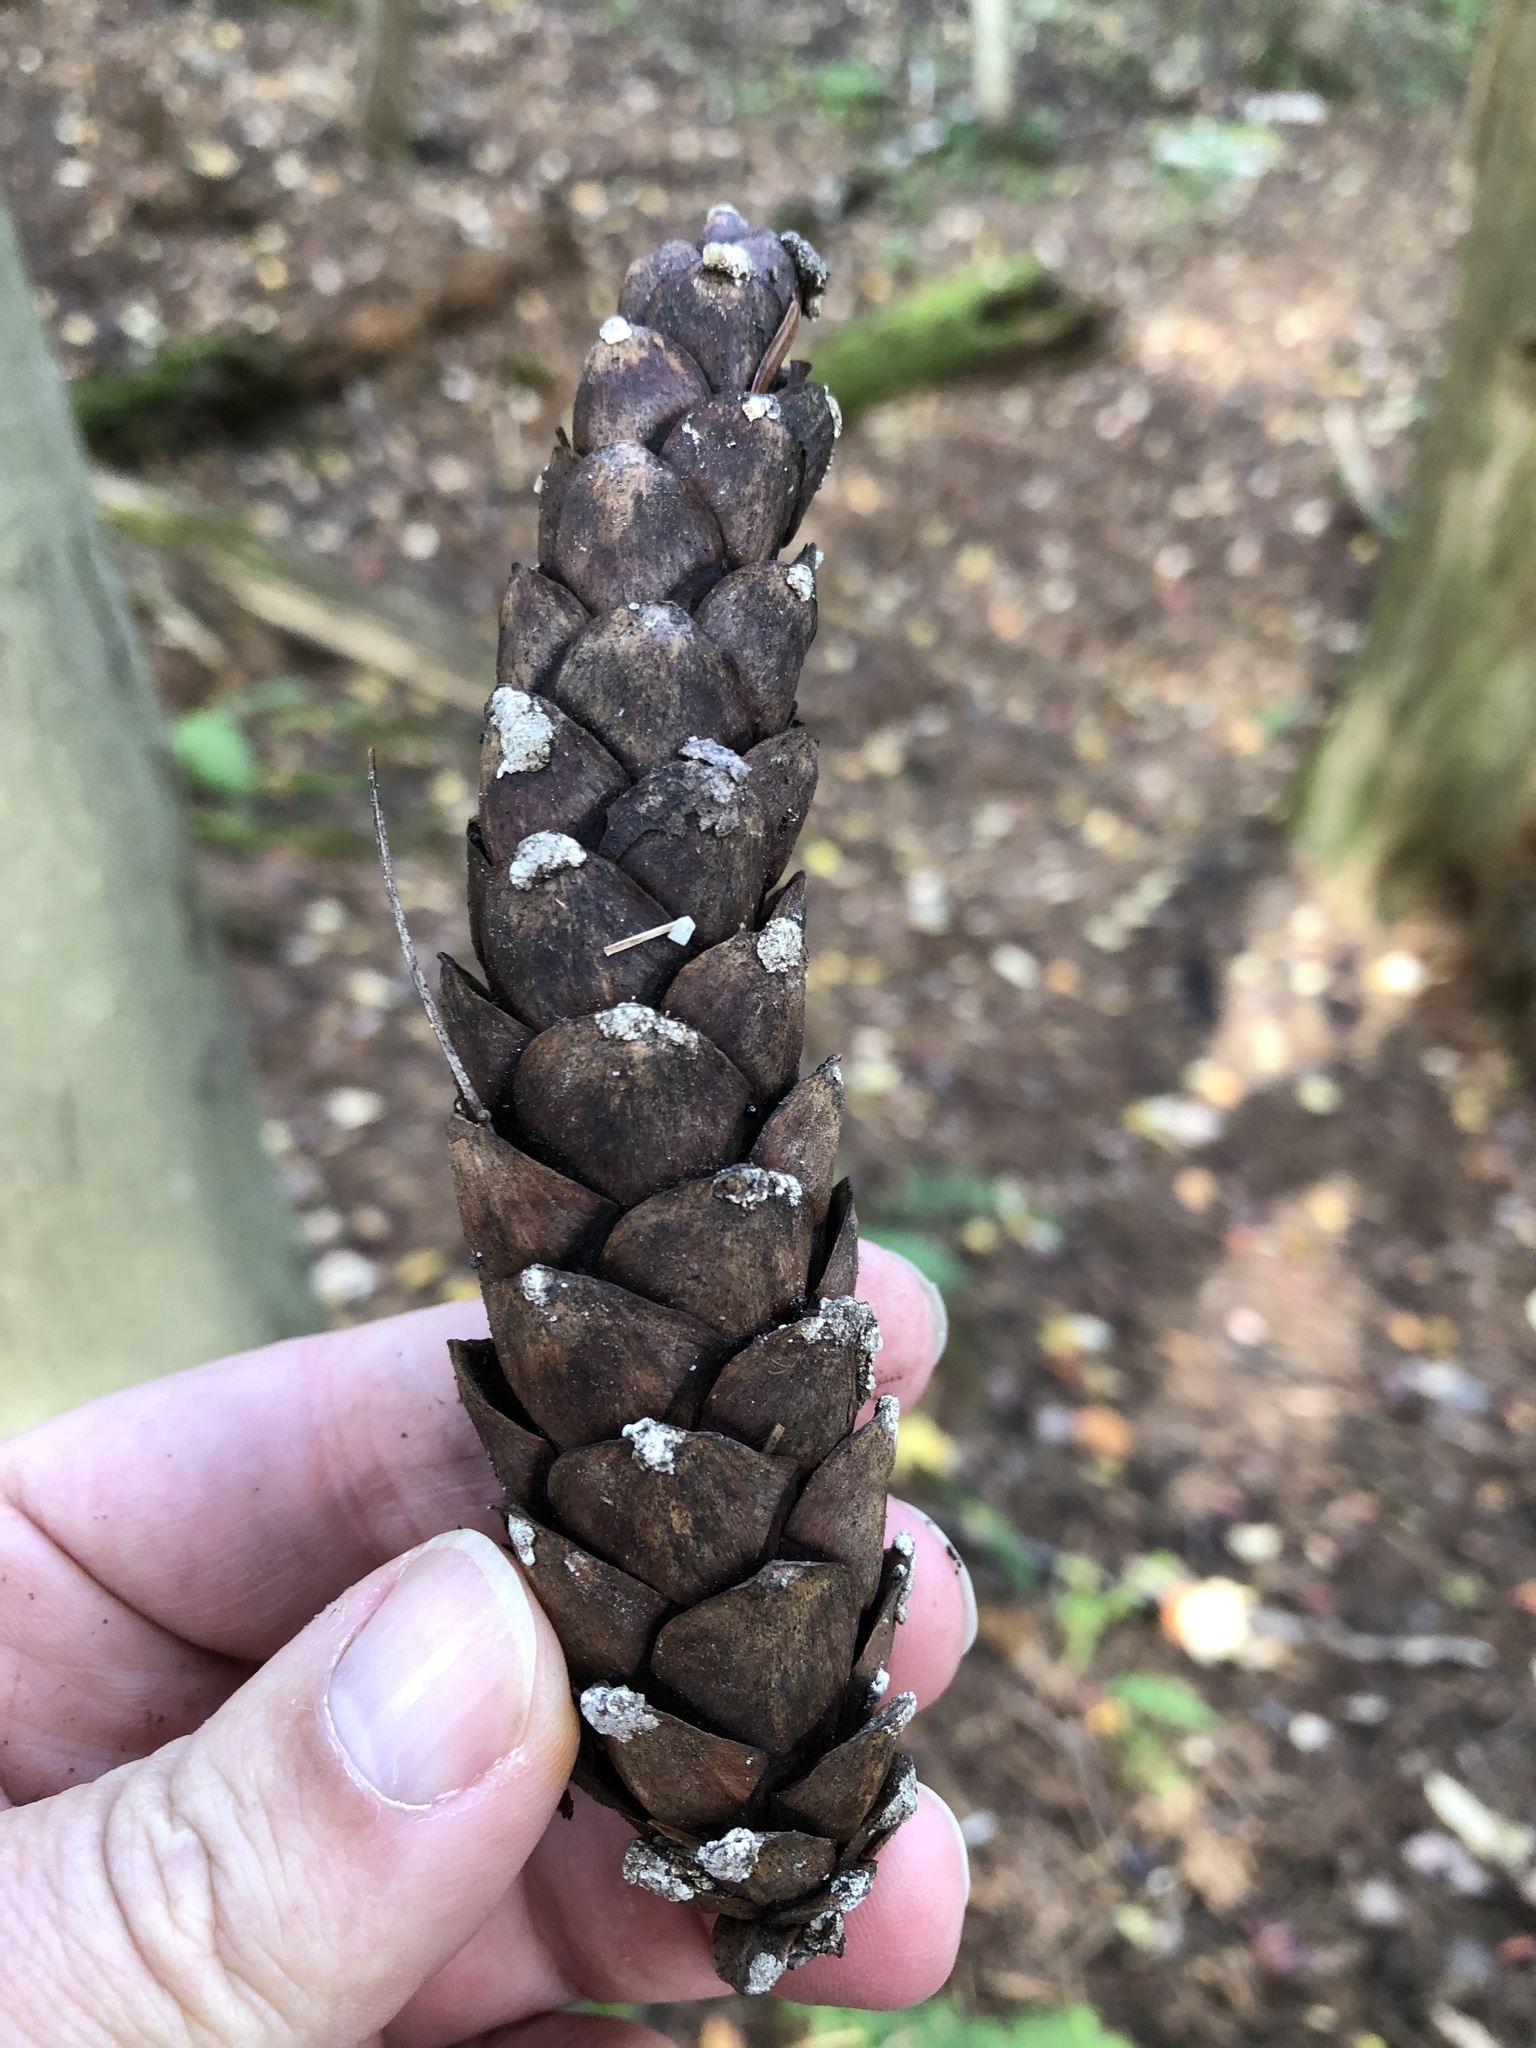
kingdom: Plantae
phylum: Tracheophyta
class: Pinopsida
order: Pinales
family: Pinaceae
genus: Pinus
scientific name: Pinus strobus
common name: Weymouth pine
